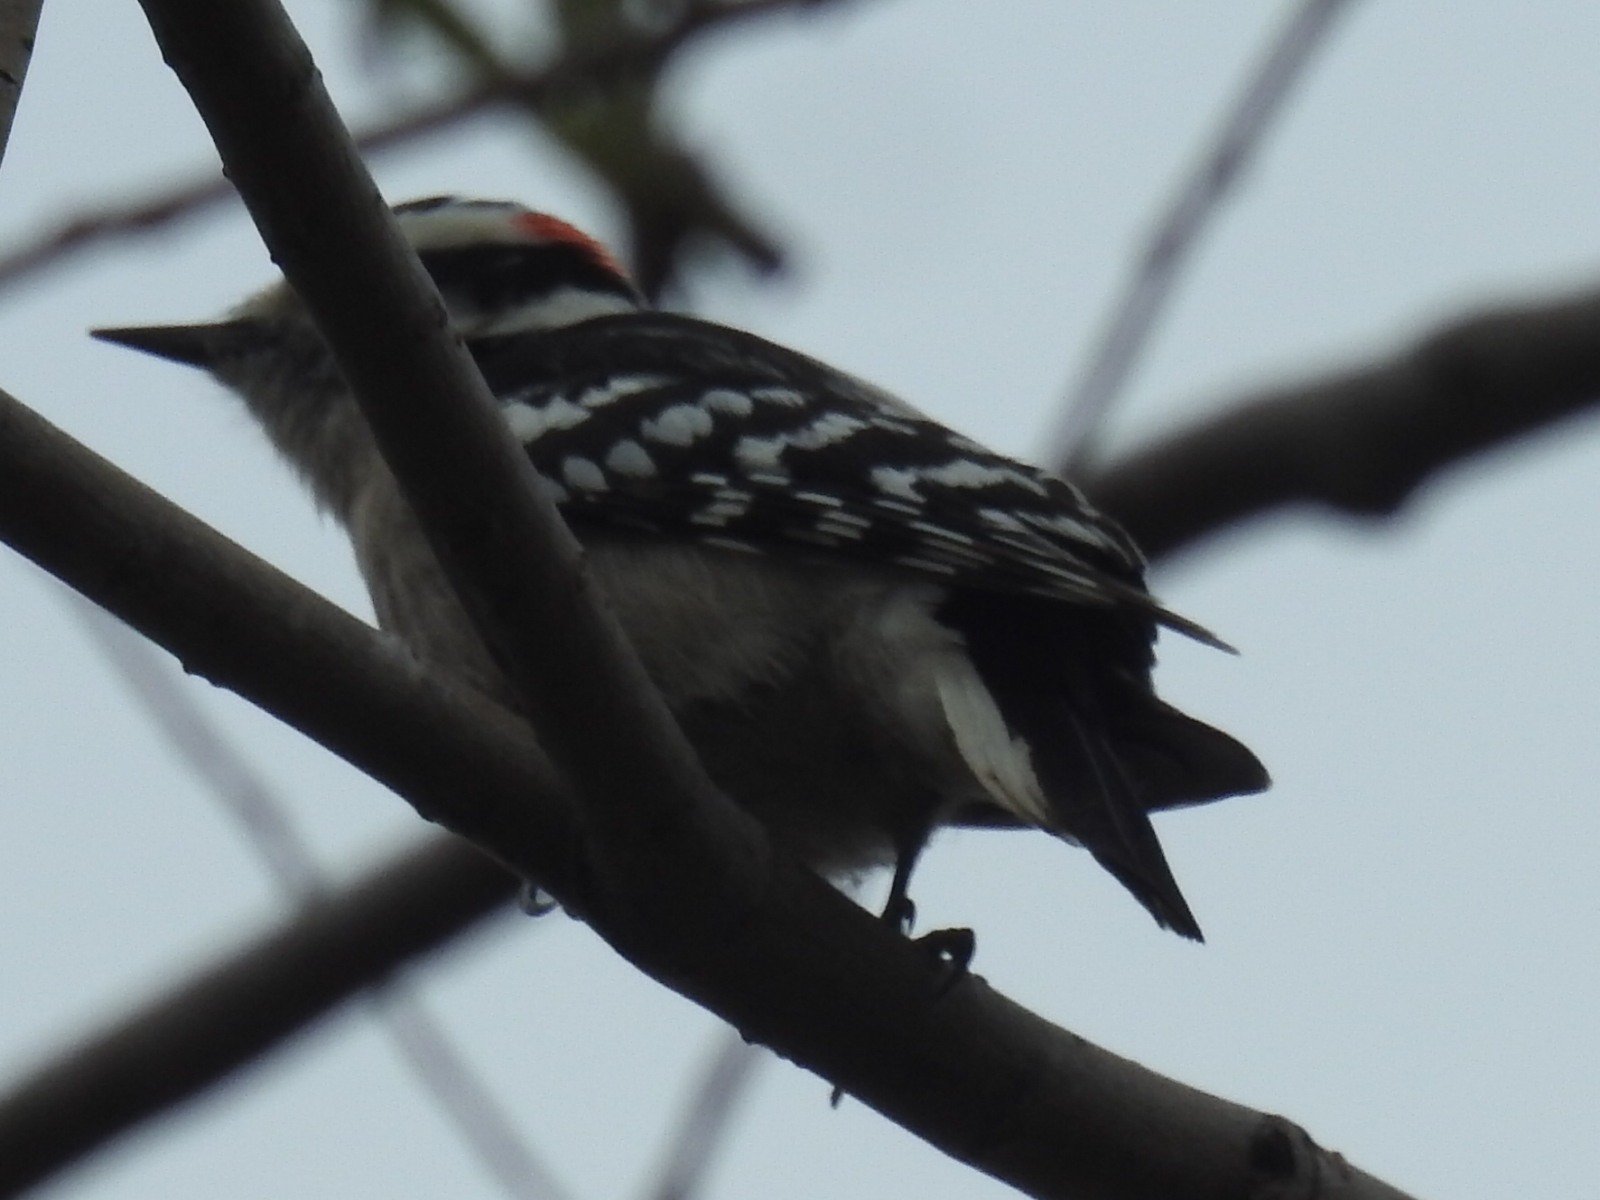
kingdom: Animalia
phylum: Chordata
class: Aves
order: Piciformes
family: Picidae
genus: Dryobates
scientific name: Dryobates pubescens
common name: Downy woodpecker
